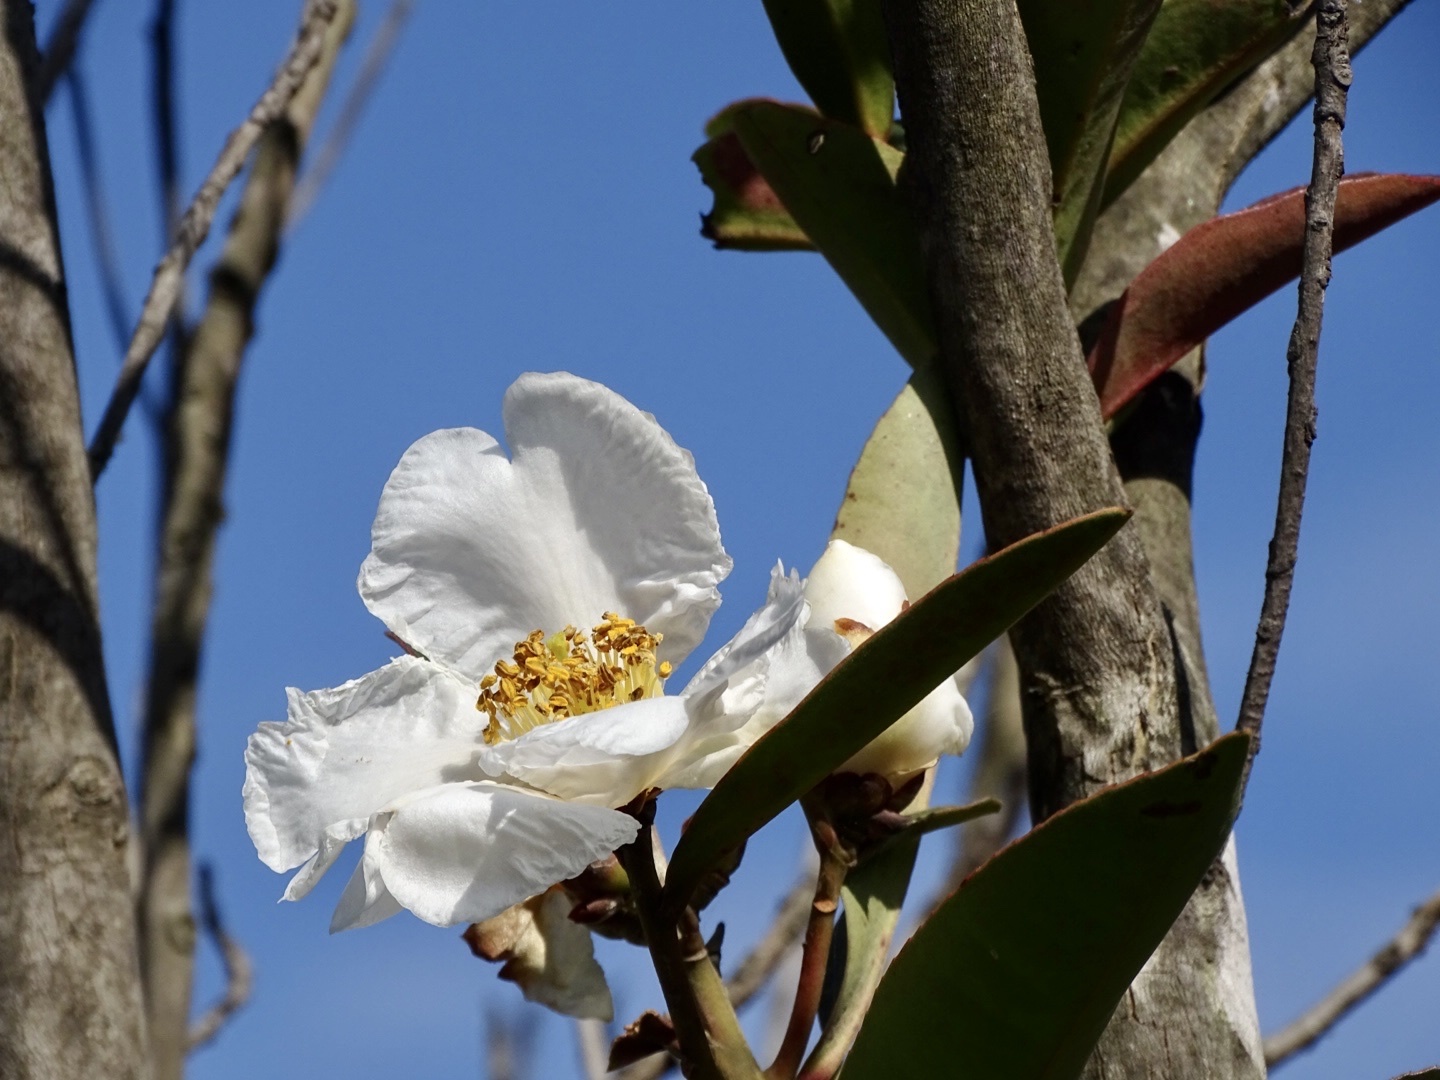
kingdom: Plantae
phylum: Tracheophyta
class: Magnoliopsida
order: Ericales
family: Theaceae
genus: Polyspora
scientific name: Polyspora axillaris
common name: Fried egg tree
